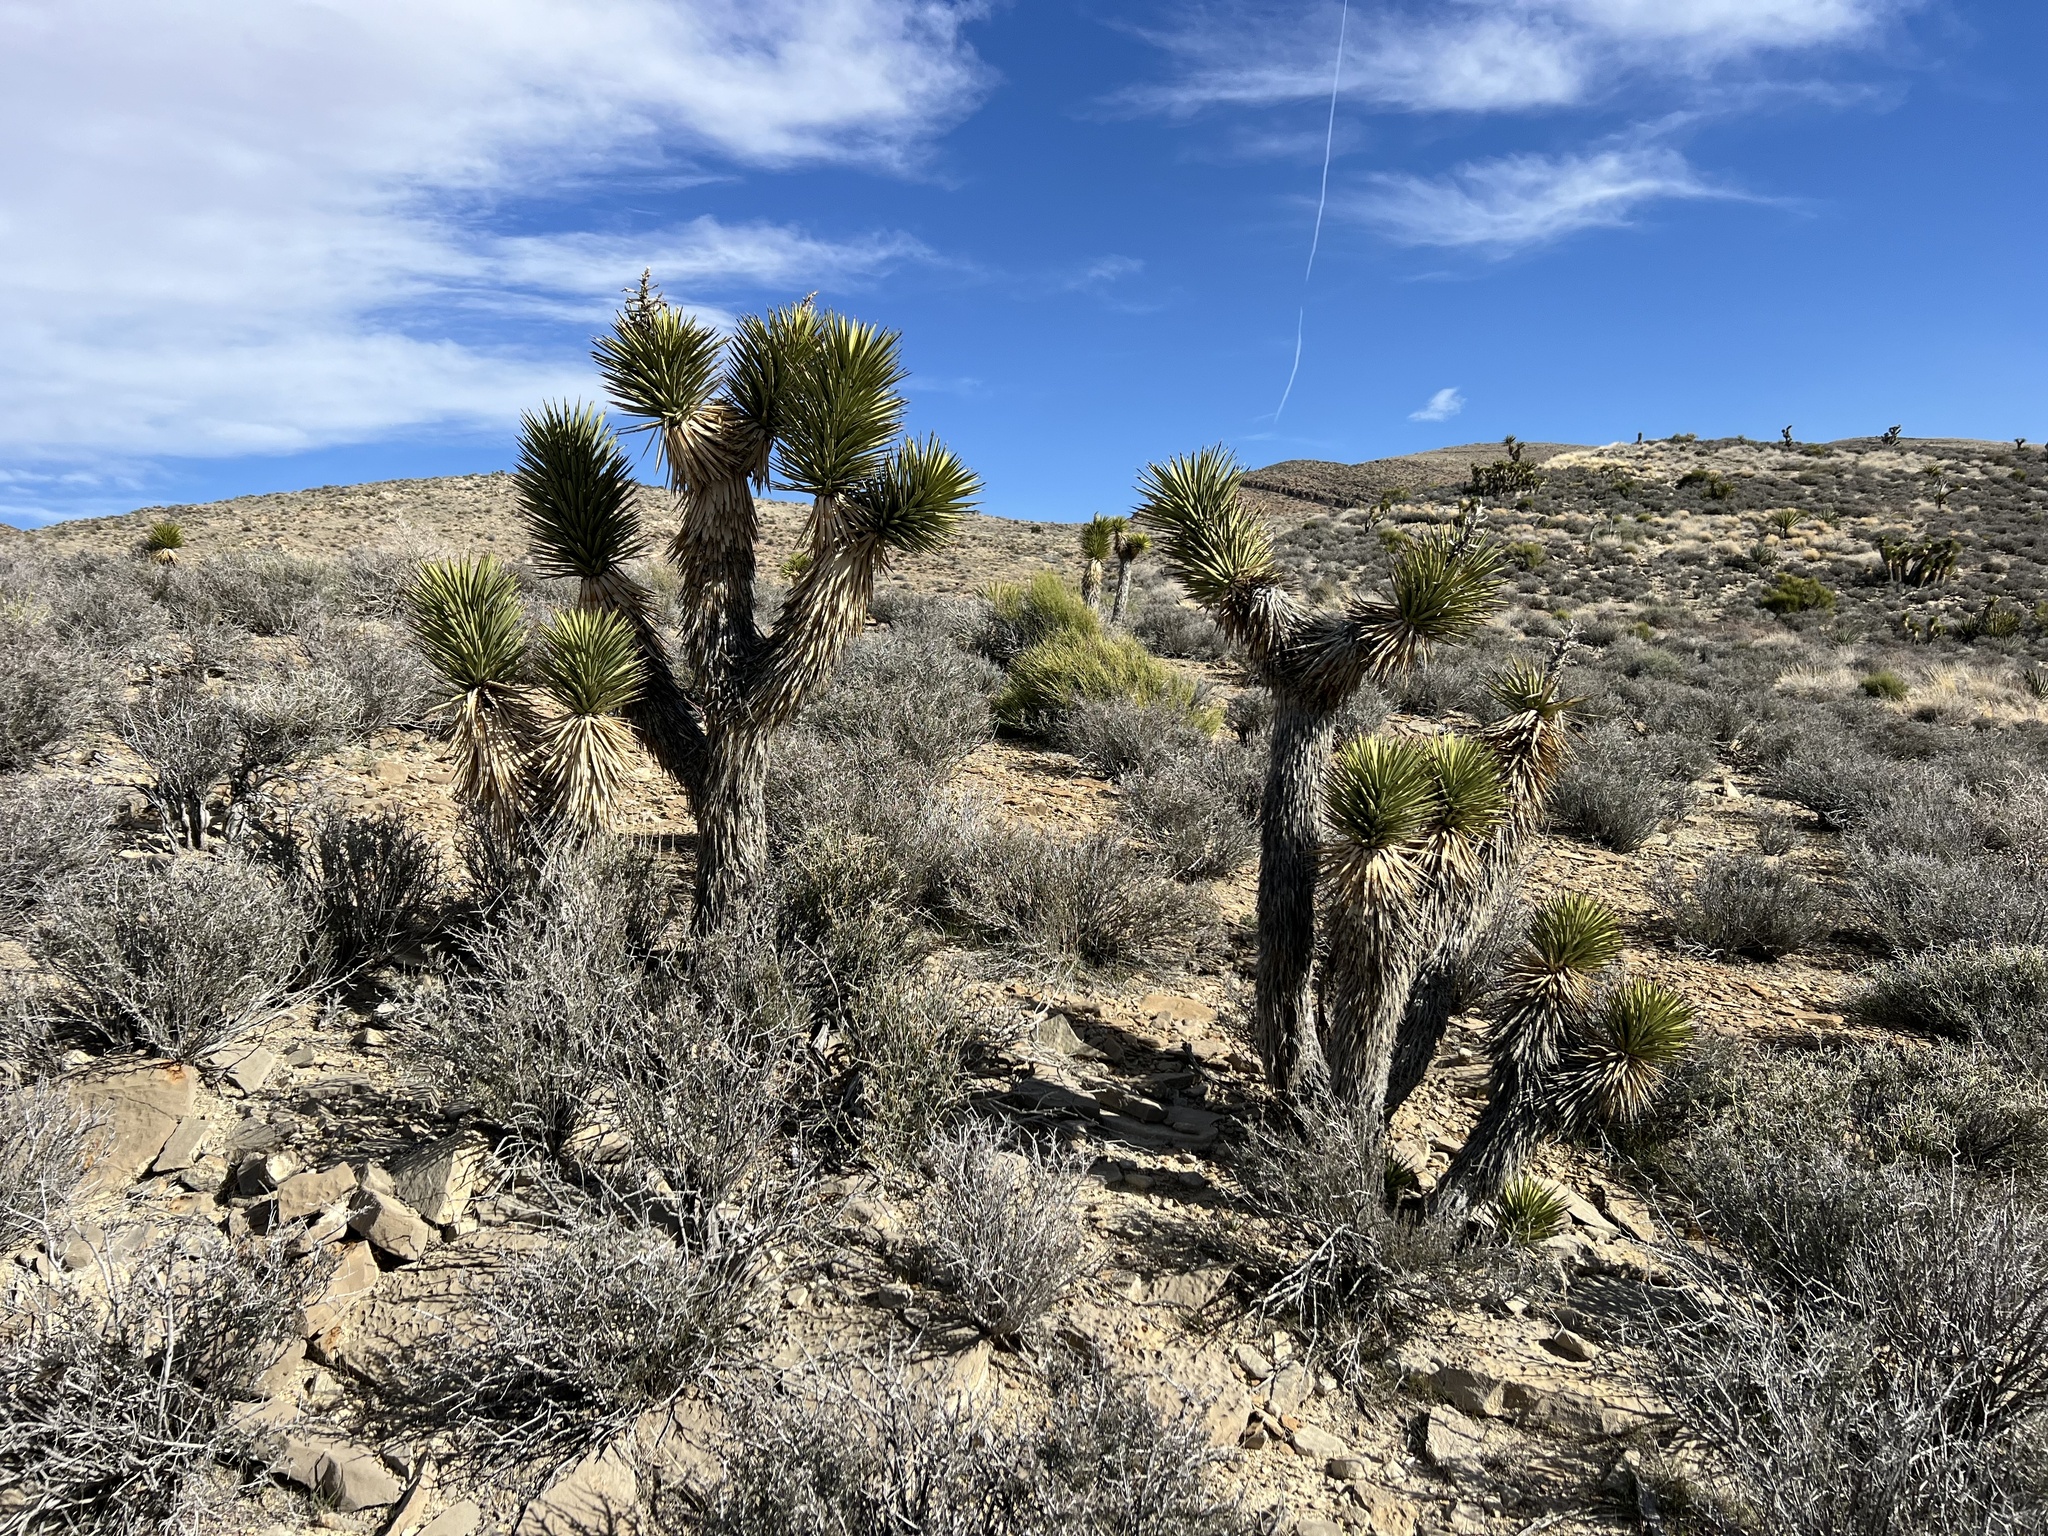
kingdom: Plantae
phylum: Tracheophyta
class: Liliopsida
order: Asparagales
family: Asparagaceae
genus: Yucca
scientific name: Yucca brevifolia
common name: Joshua tree
